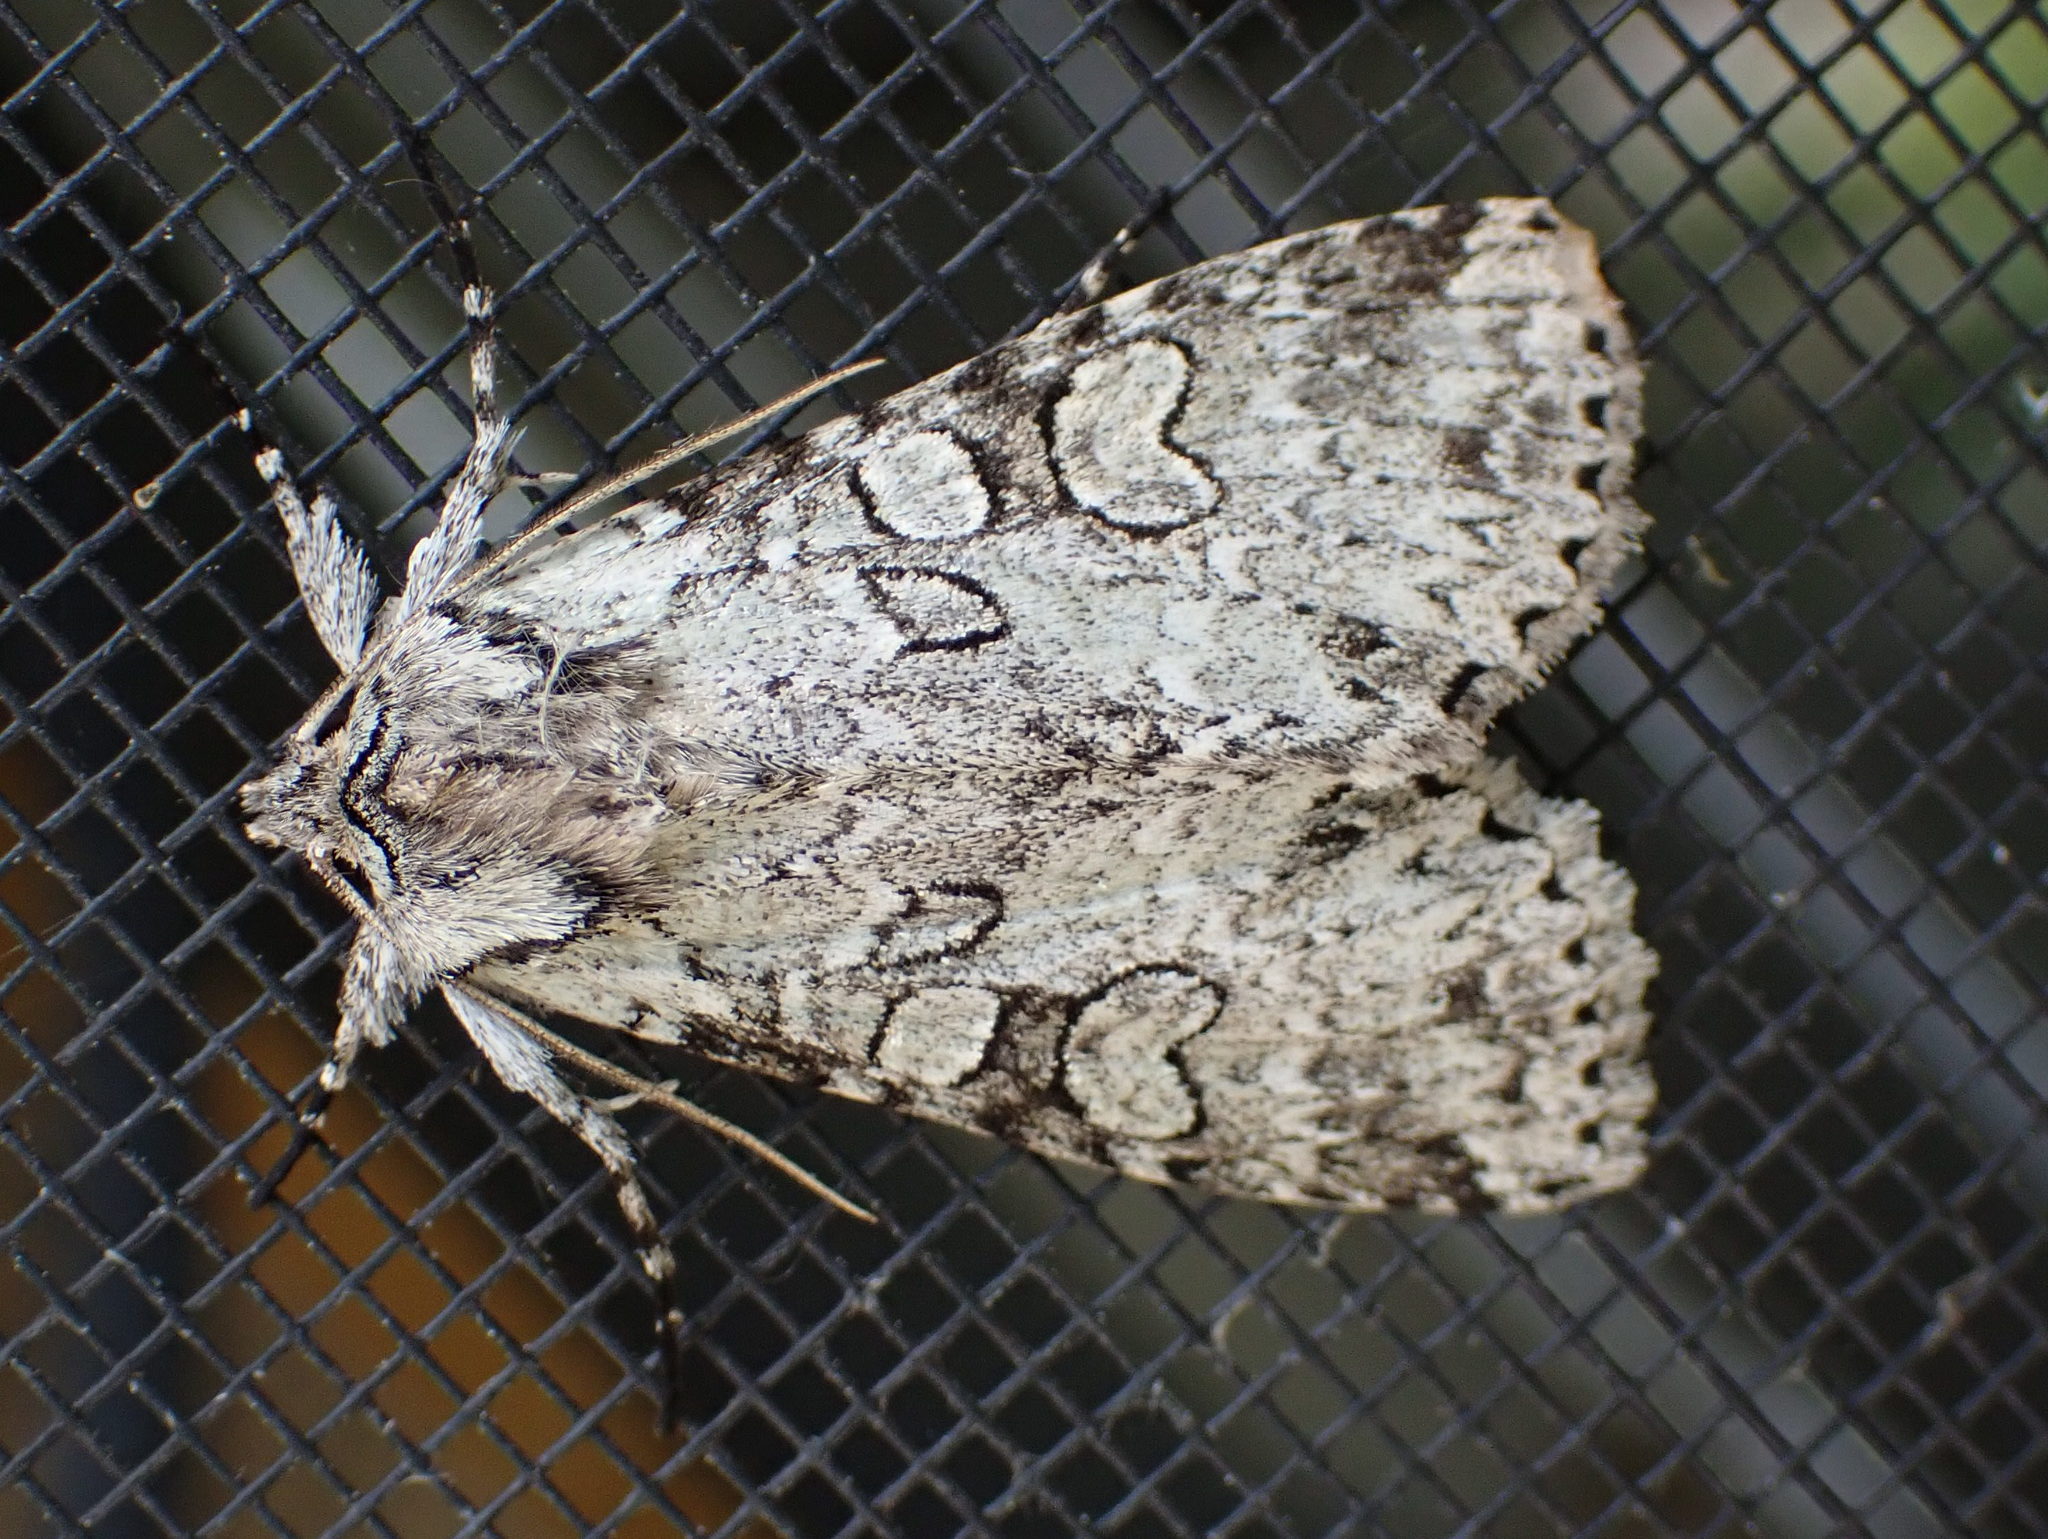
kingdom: Animalia
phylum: Arthropoda
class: Insecta
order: Lepidoptera
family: Noctuidae
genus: Polia
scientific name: Polia nimbosa
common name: Stormy arches
